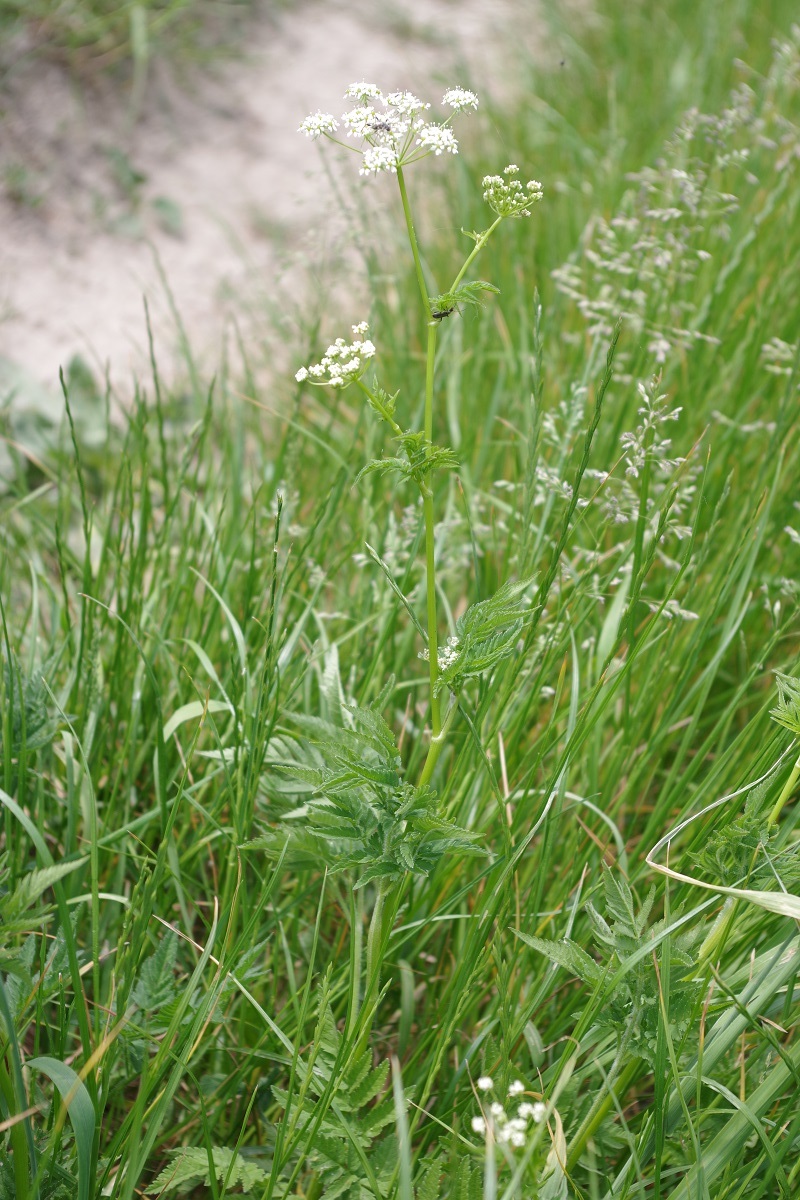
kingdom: Plantae
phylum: Tracheophyta
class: Magnoliopsida
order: Apiales
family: Apiaceae
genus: Chaerophyllum
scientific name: Chaerophyllum aureum
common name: Golden chervil
